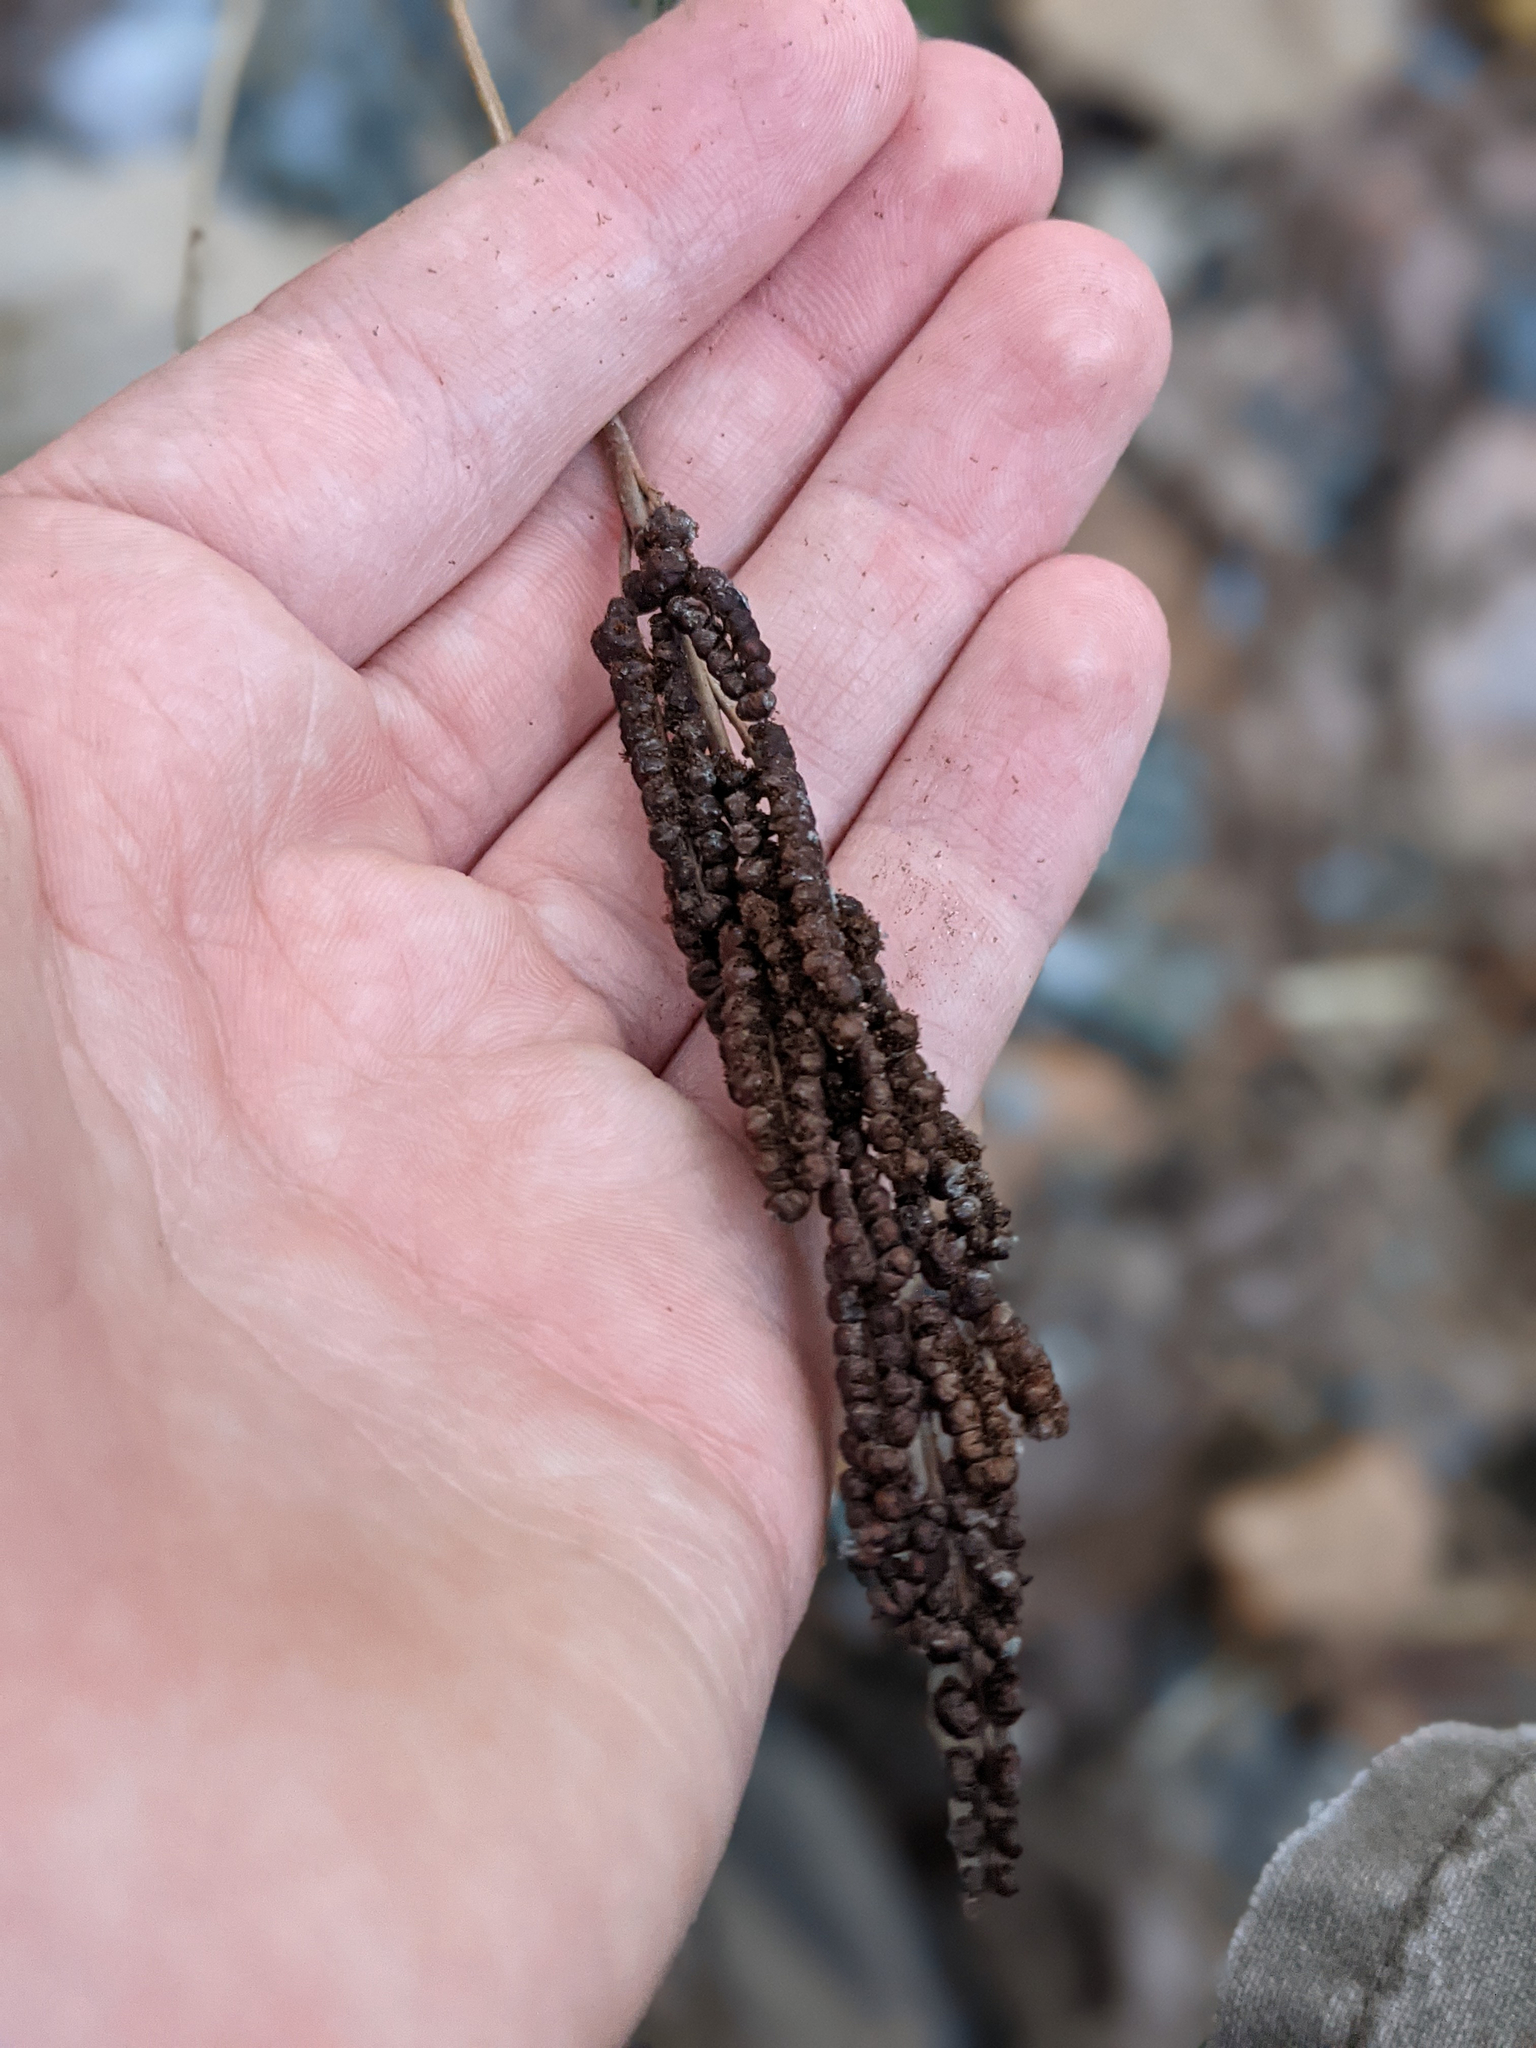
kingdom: Plantae
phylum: Tracheophyta
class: Polypodiopsida
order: Polypodiales
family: Onocleaceae
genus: Onoclea
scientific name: Onoclea sensibilis
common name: Sensitive fern
